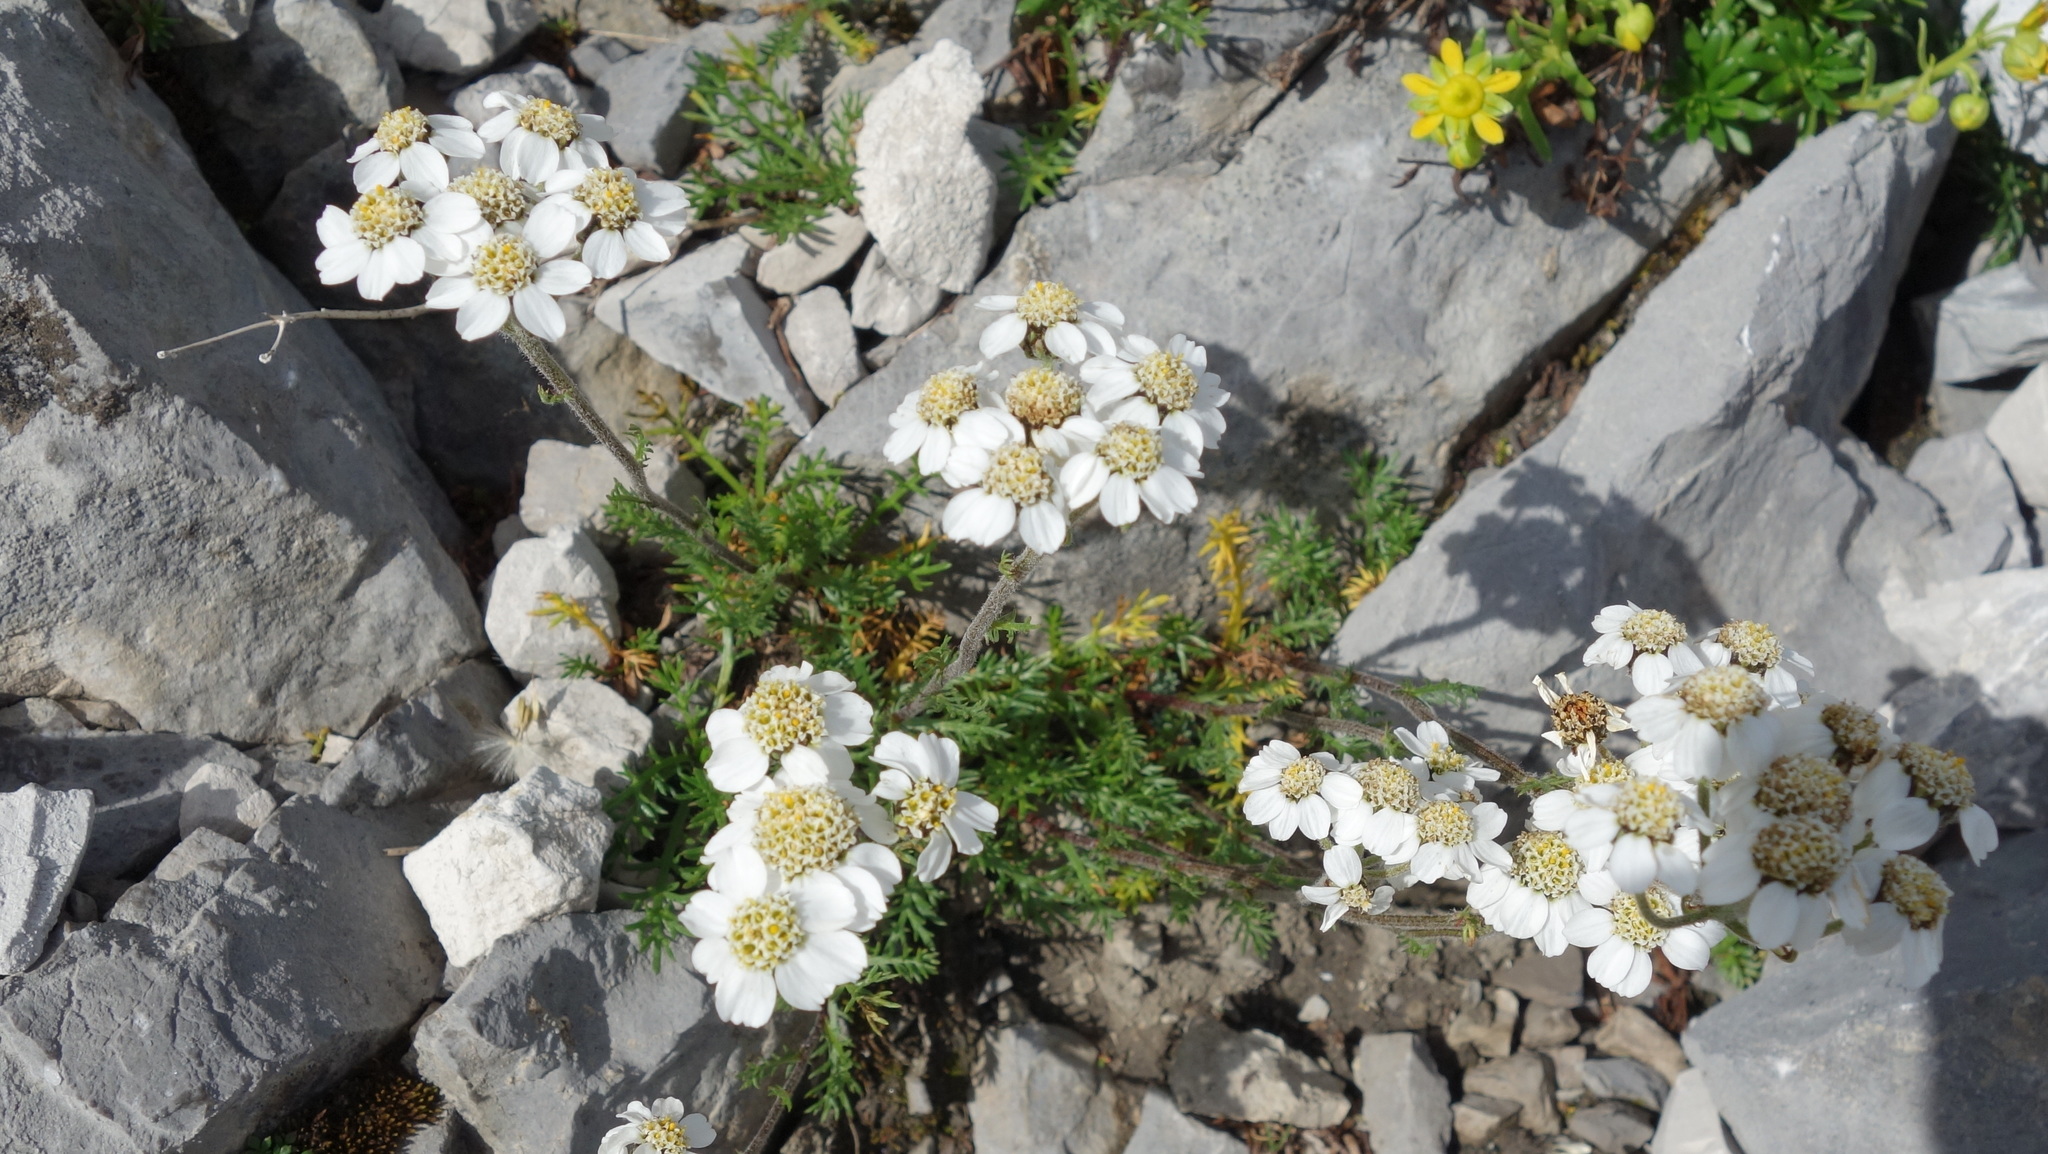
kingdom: Plantae
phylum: Tracheophyta
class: Magnoliopsida
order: Asterales
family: Asteraceae
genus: Achillea
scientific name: Achillea atrata
